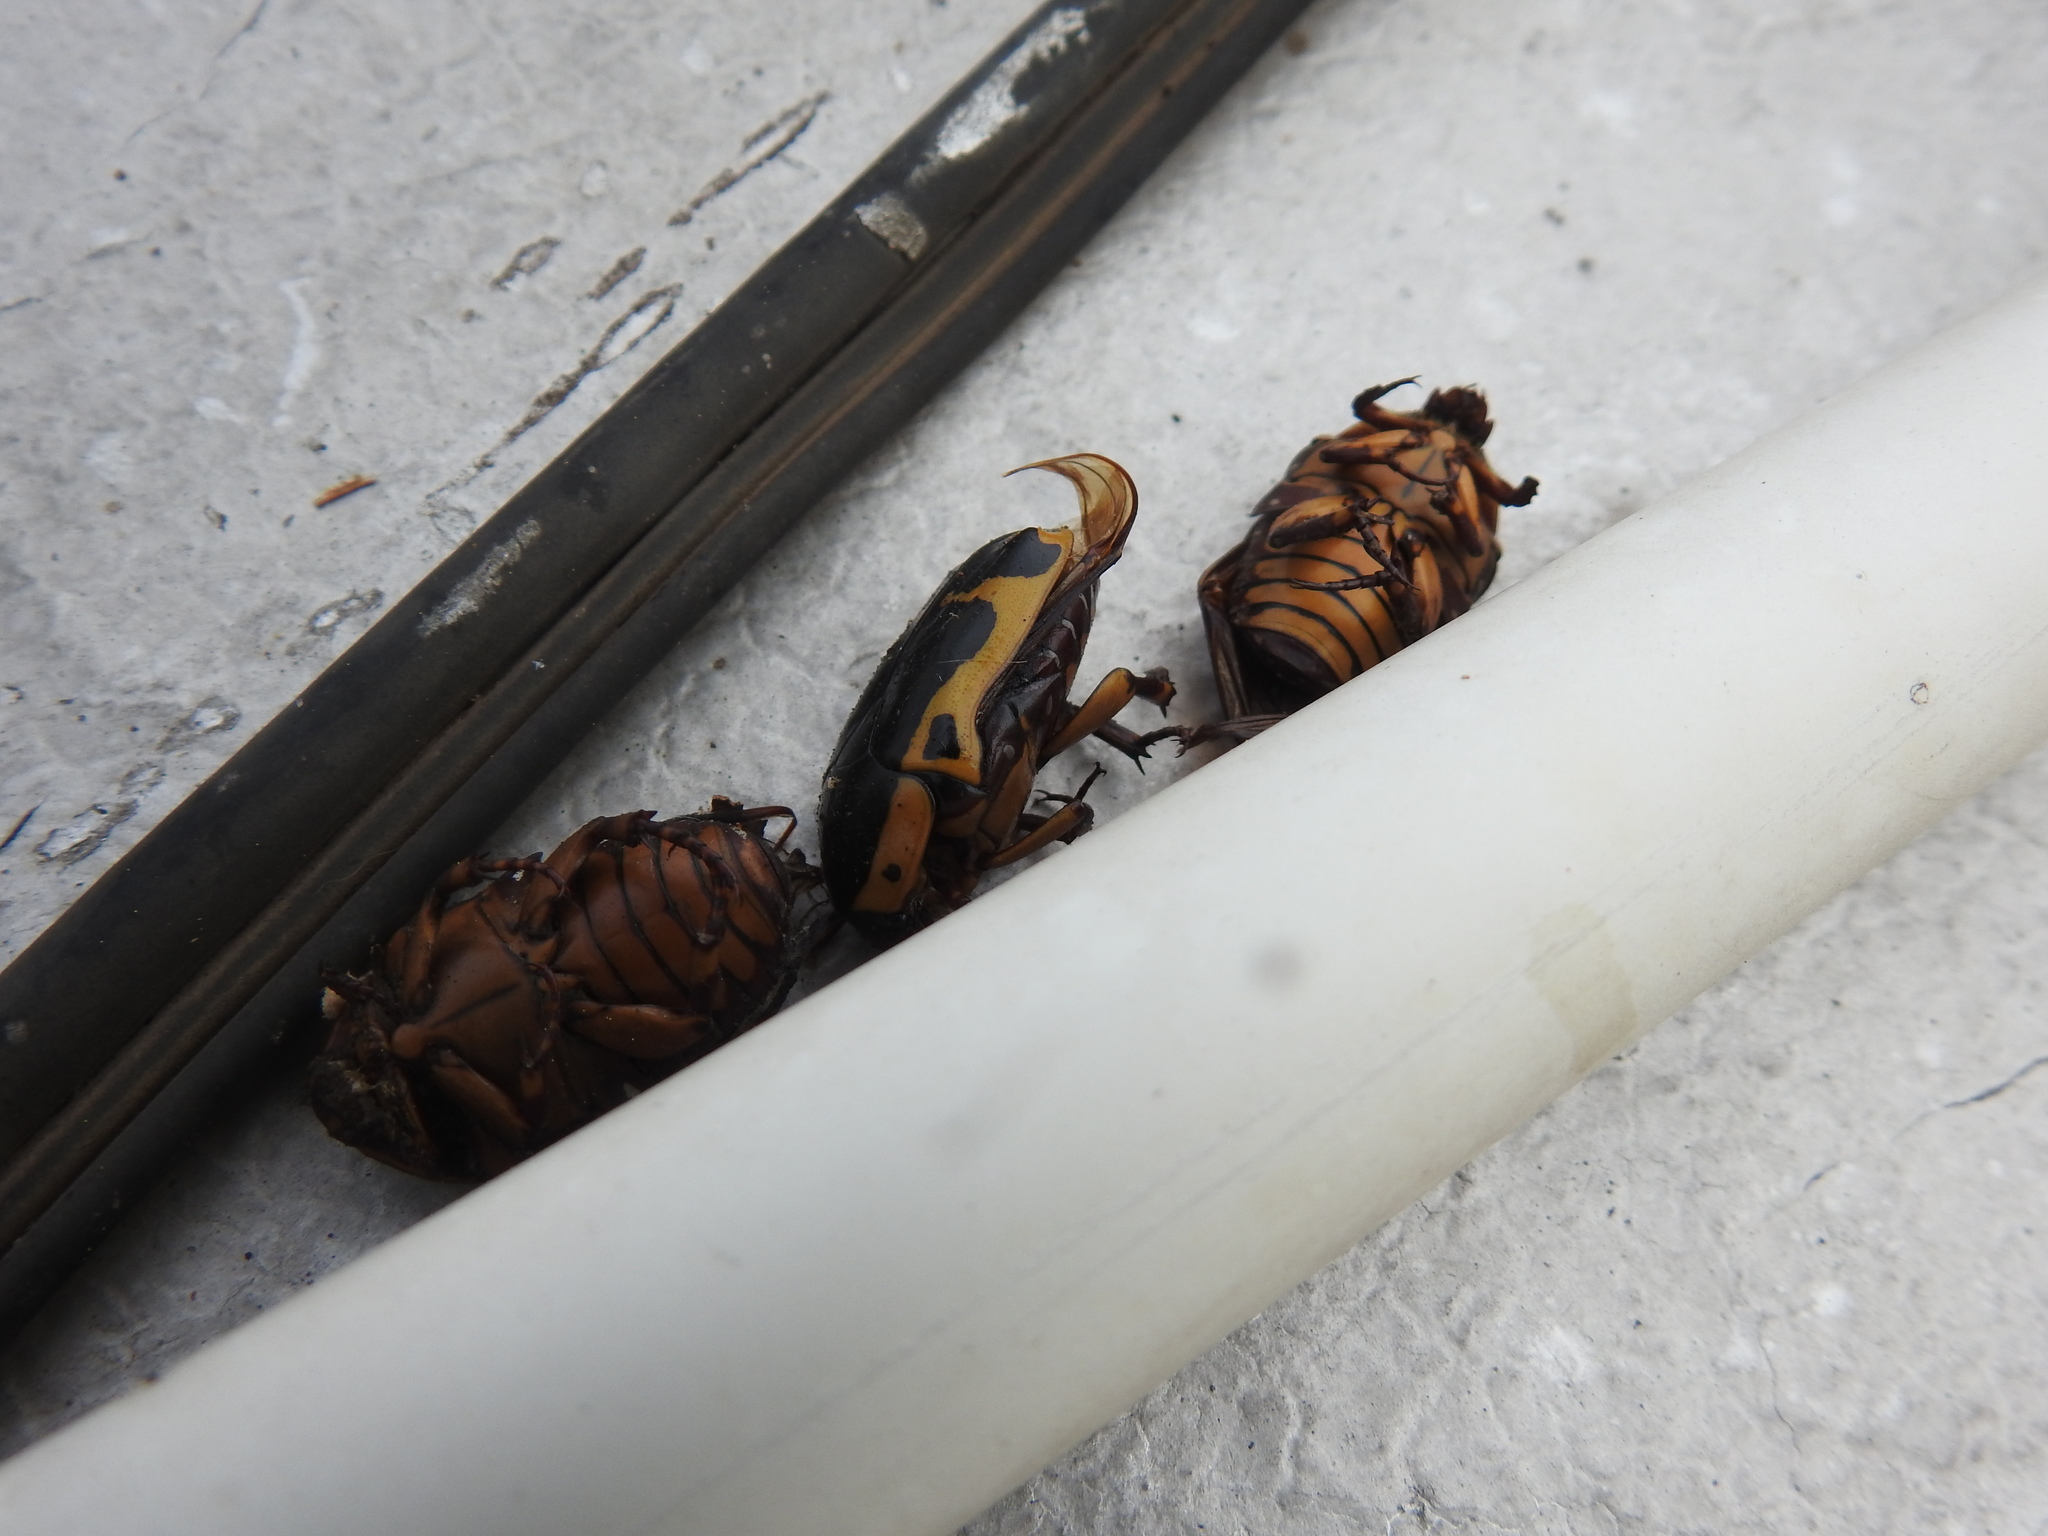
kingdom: Animalia
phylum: Arthropoda
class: Insecta
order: Coleoptera
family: Scarabaeidae
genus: Pachnoda
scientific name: Pachnoda sinuata
